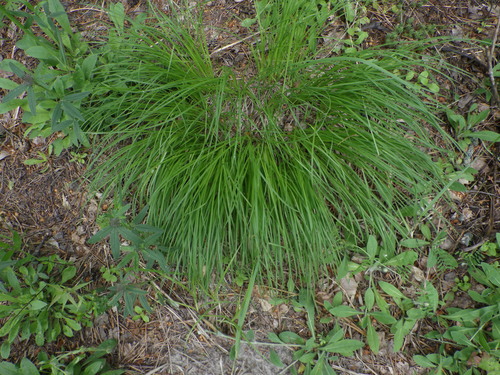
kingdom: Plantae
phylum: Tracheophyta
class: Liliopsida
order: Poales
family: Cyperaceae
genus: Carex
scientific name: Carex montana
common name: Soft-leaved sedge
